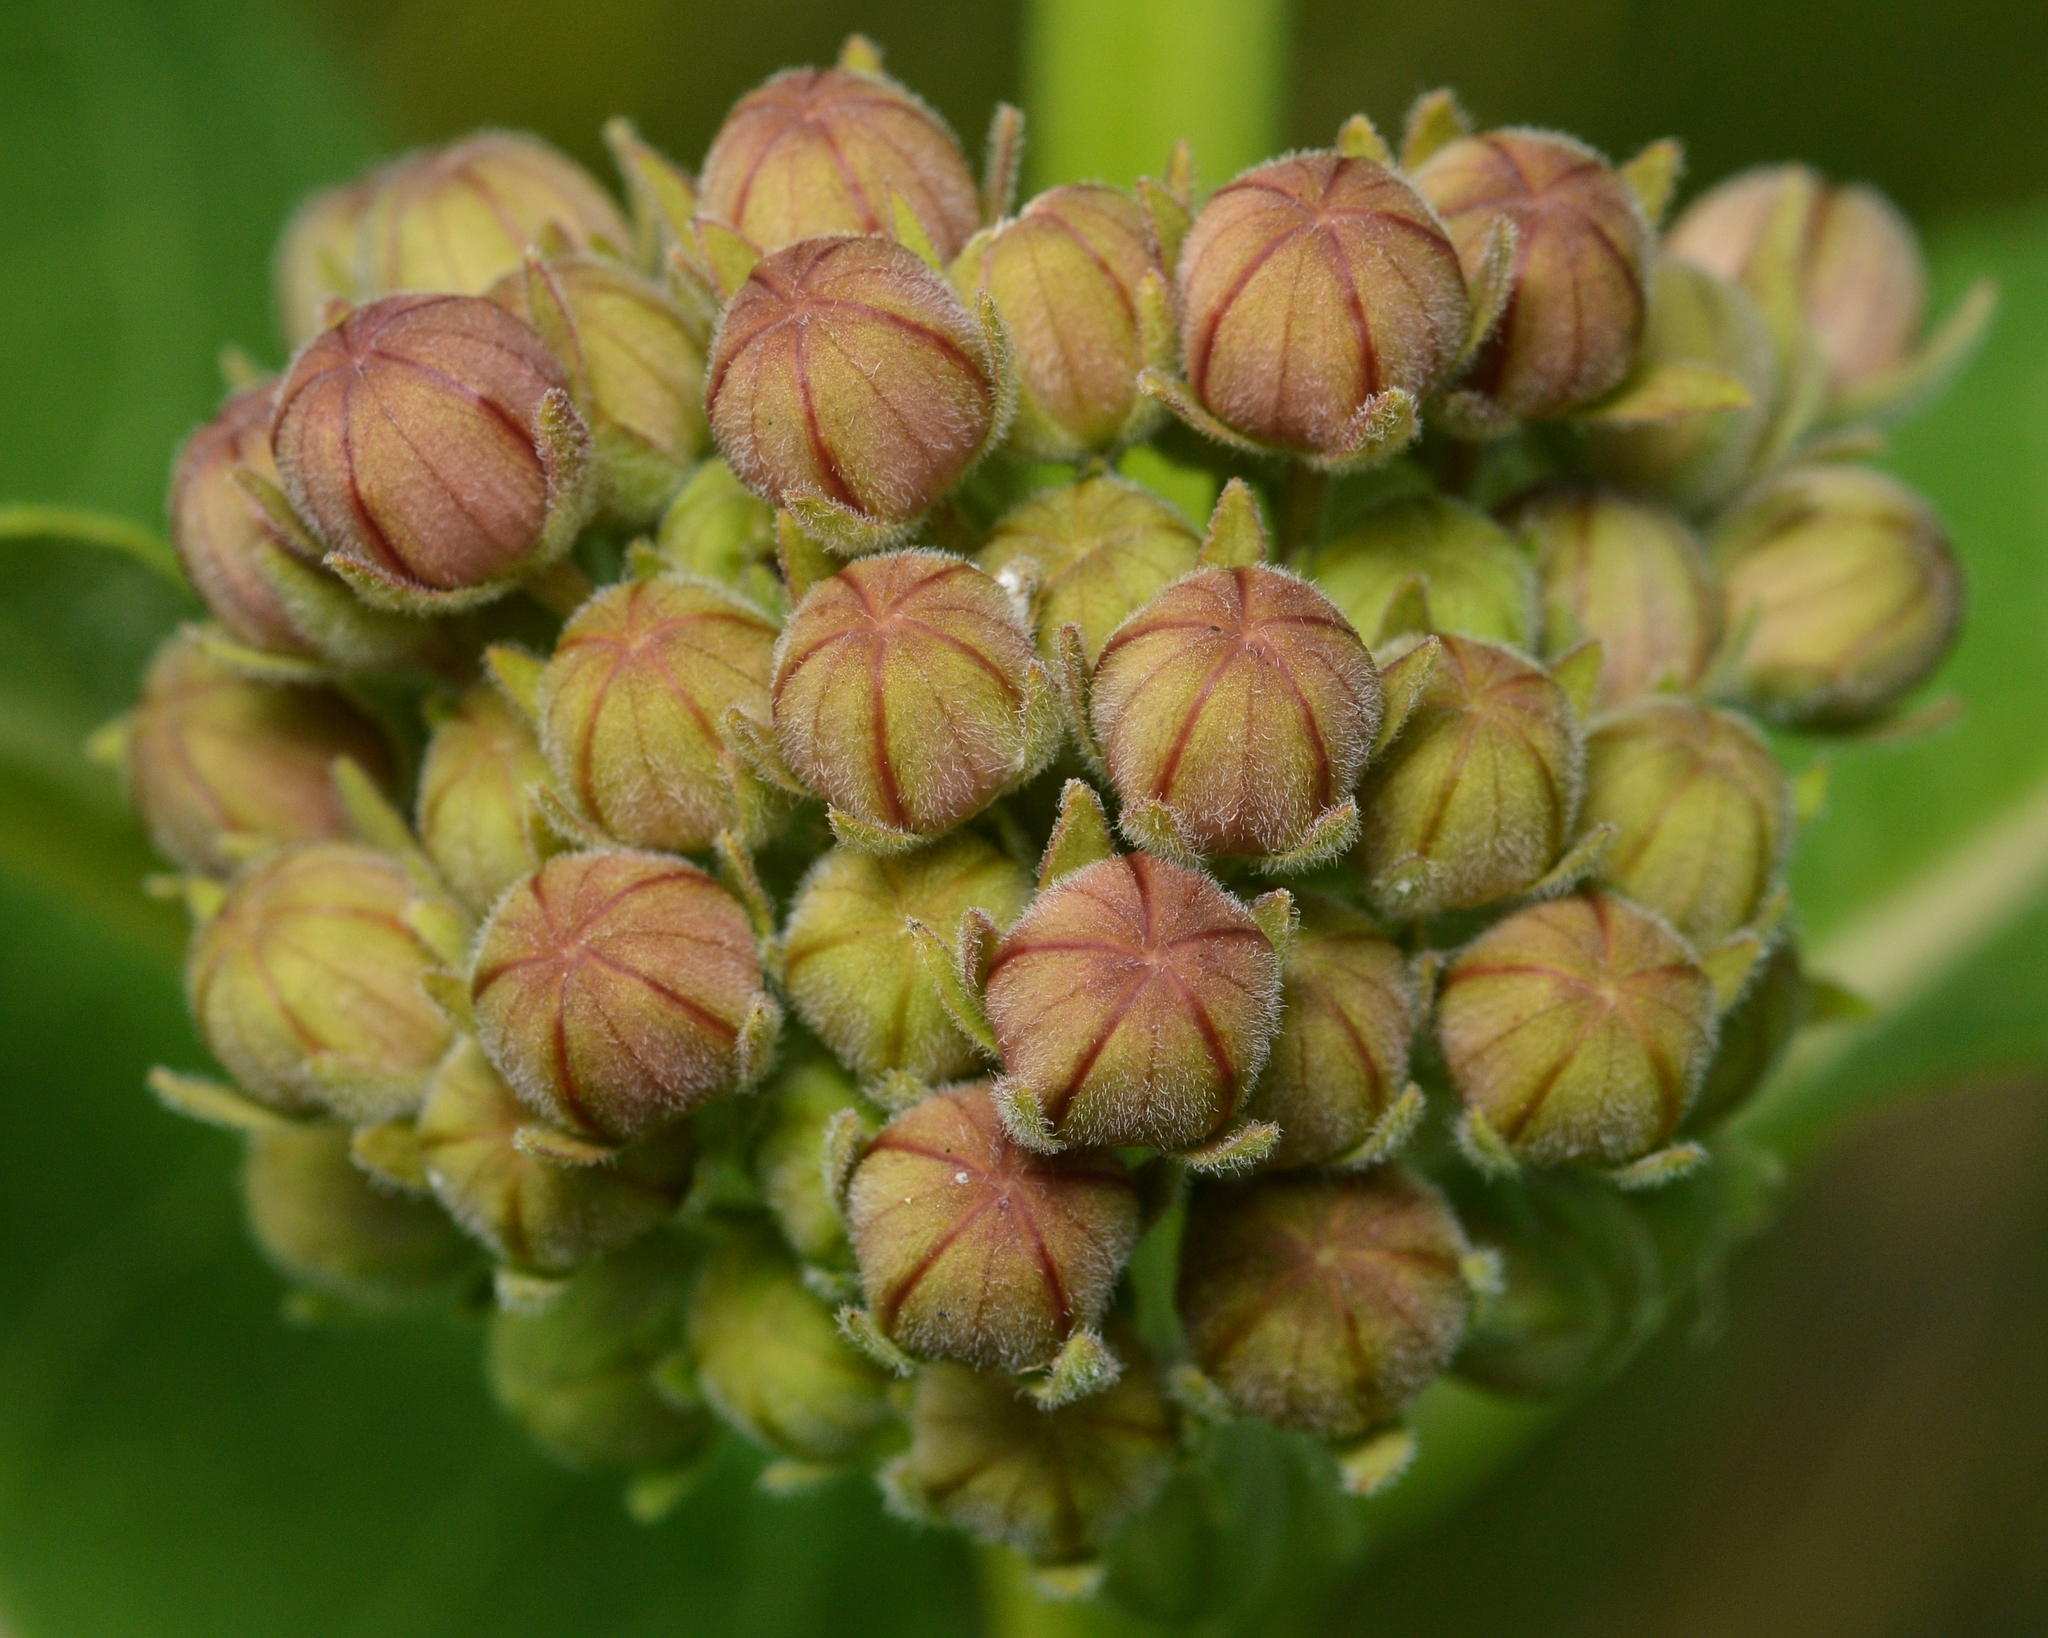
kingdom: Plantae
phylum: Tracheophyta
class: Magnoliopsida
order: Gentianales
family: Apocynaceae
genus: Asclepias
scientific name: Asclepias syriaca
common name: Common milkweed
